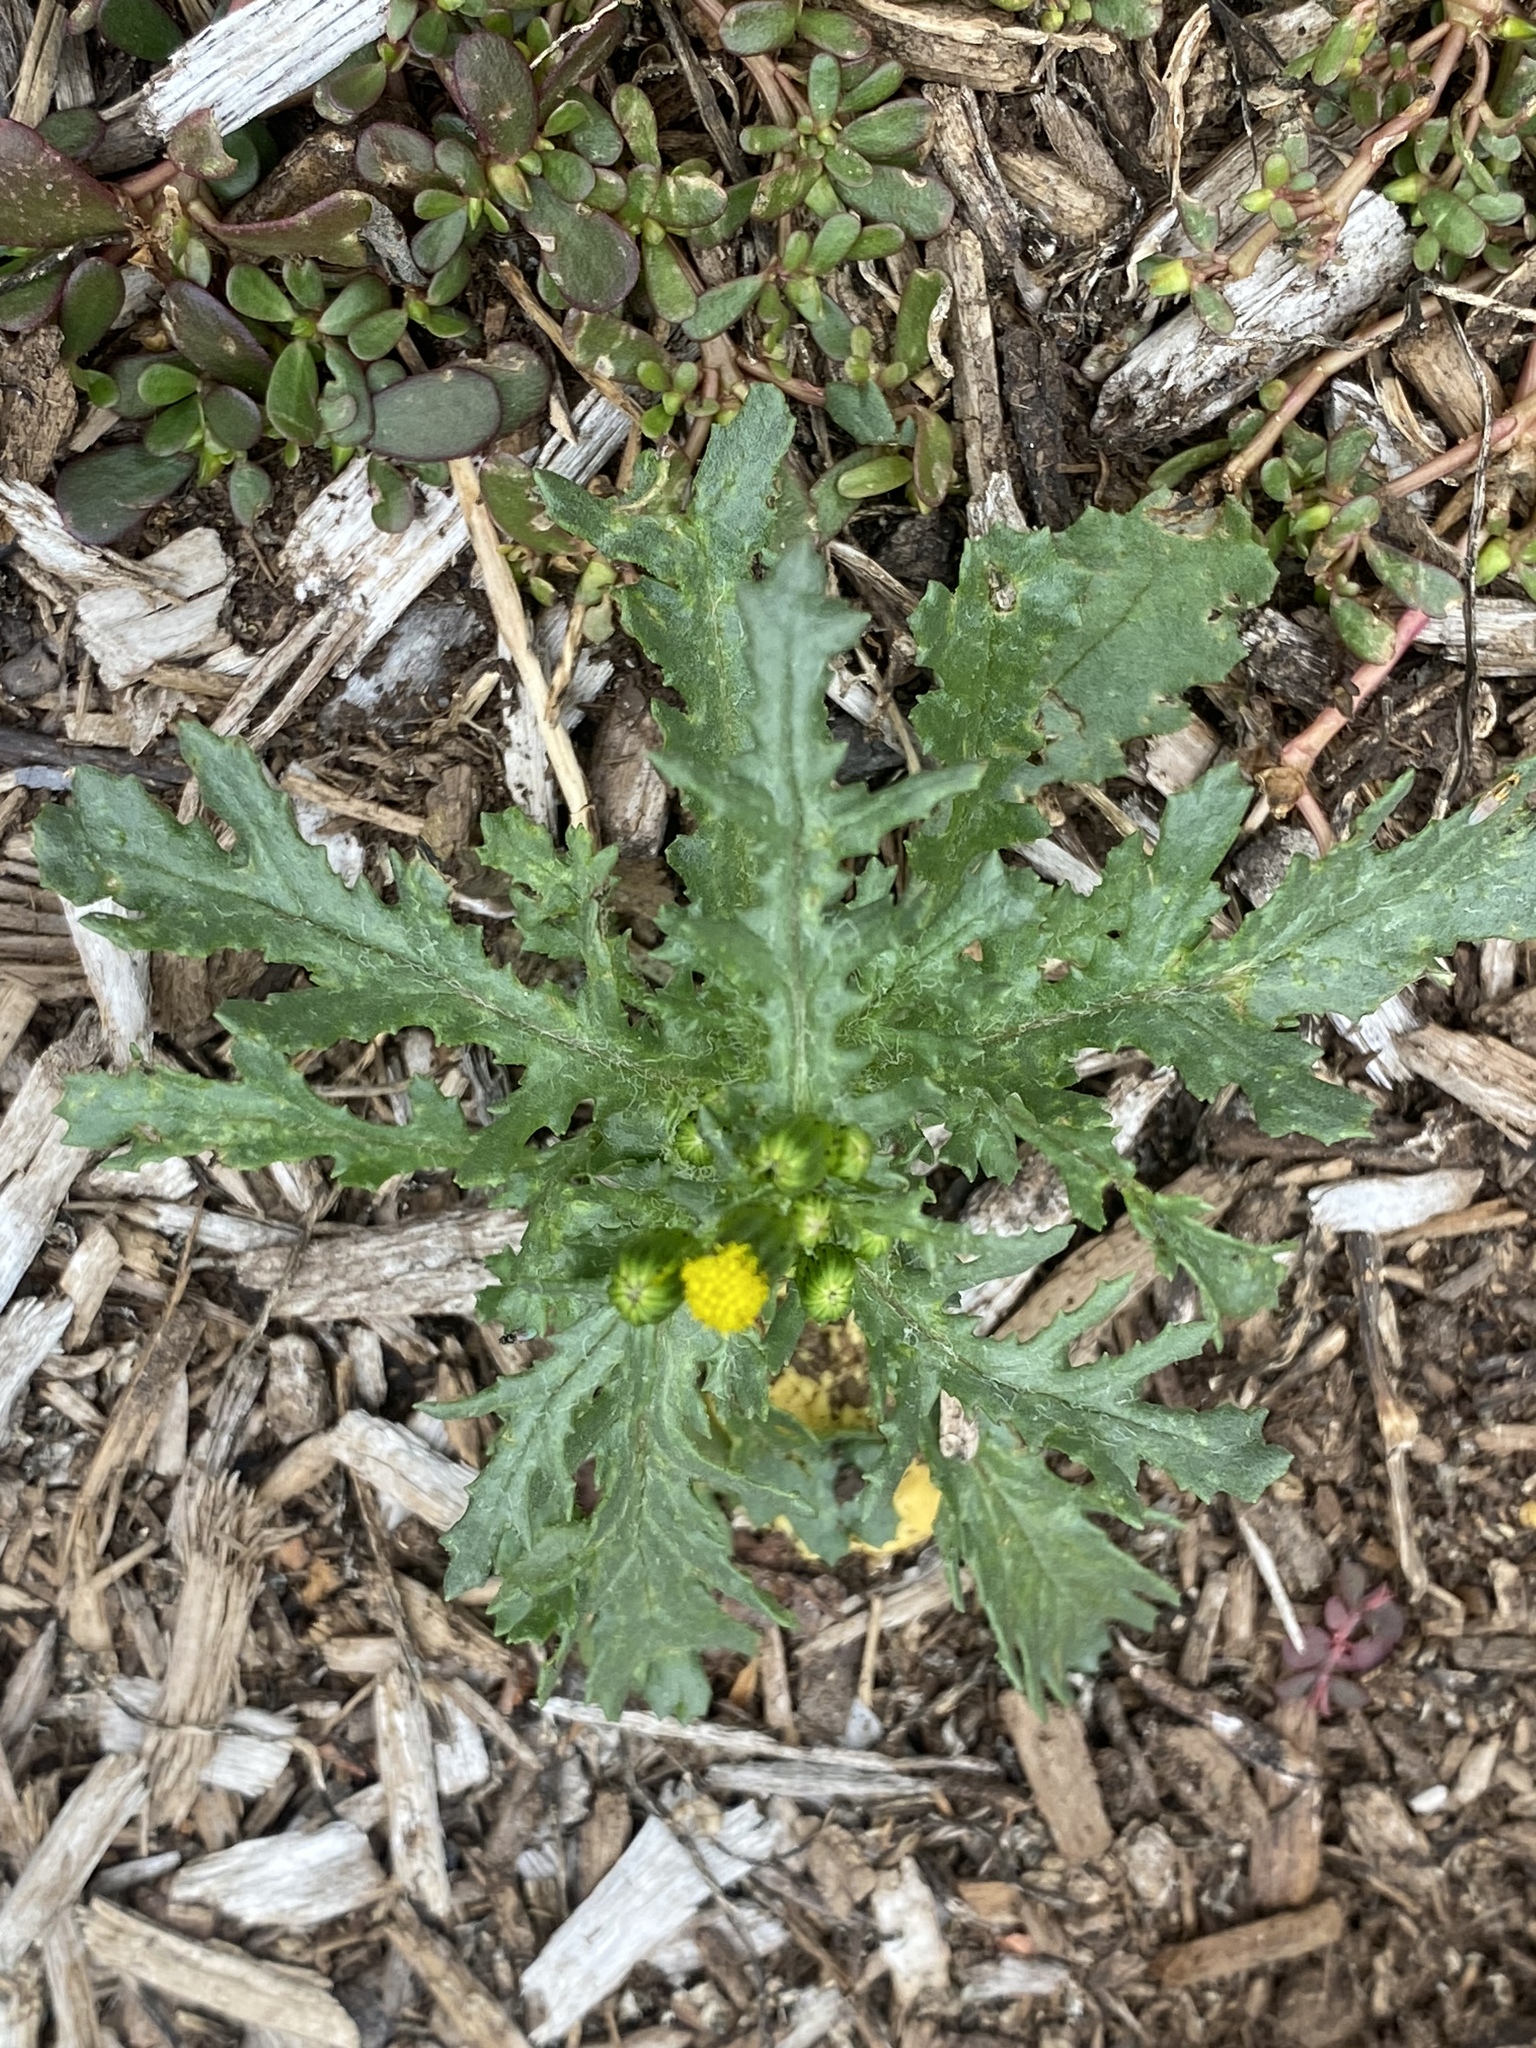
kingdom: Plantae
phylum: Tracheophyta
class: Magnoliopsida
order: Asterales
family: Asteraceae
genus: Senecio
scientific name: Senecio vulgaris
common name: Old-man-in-the-spring
